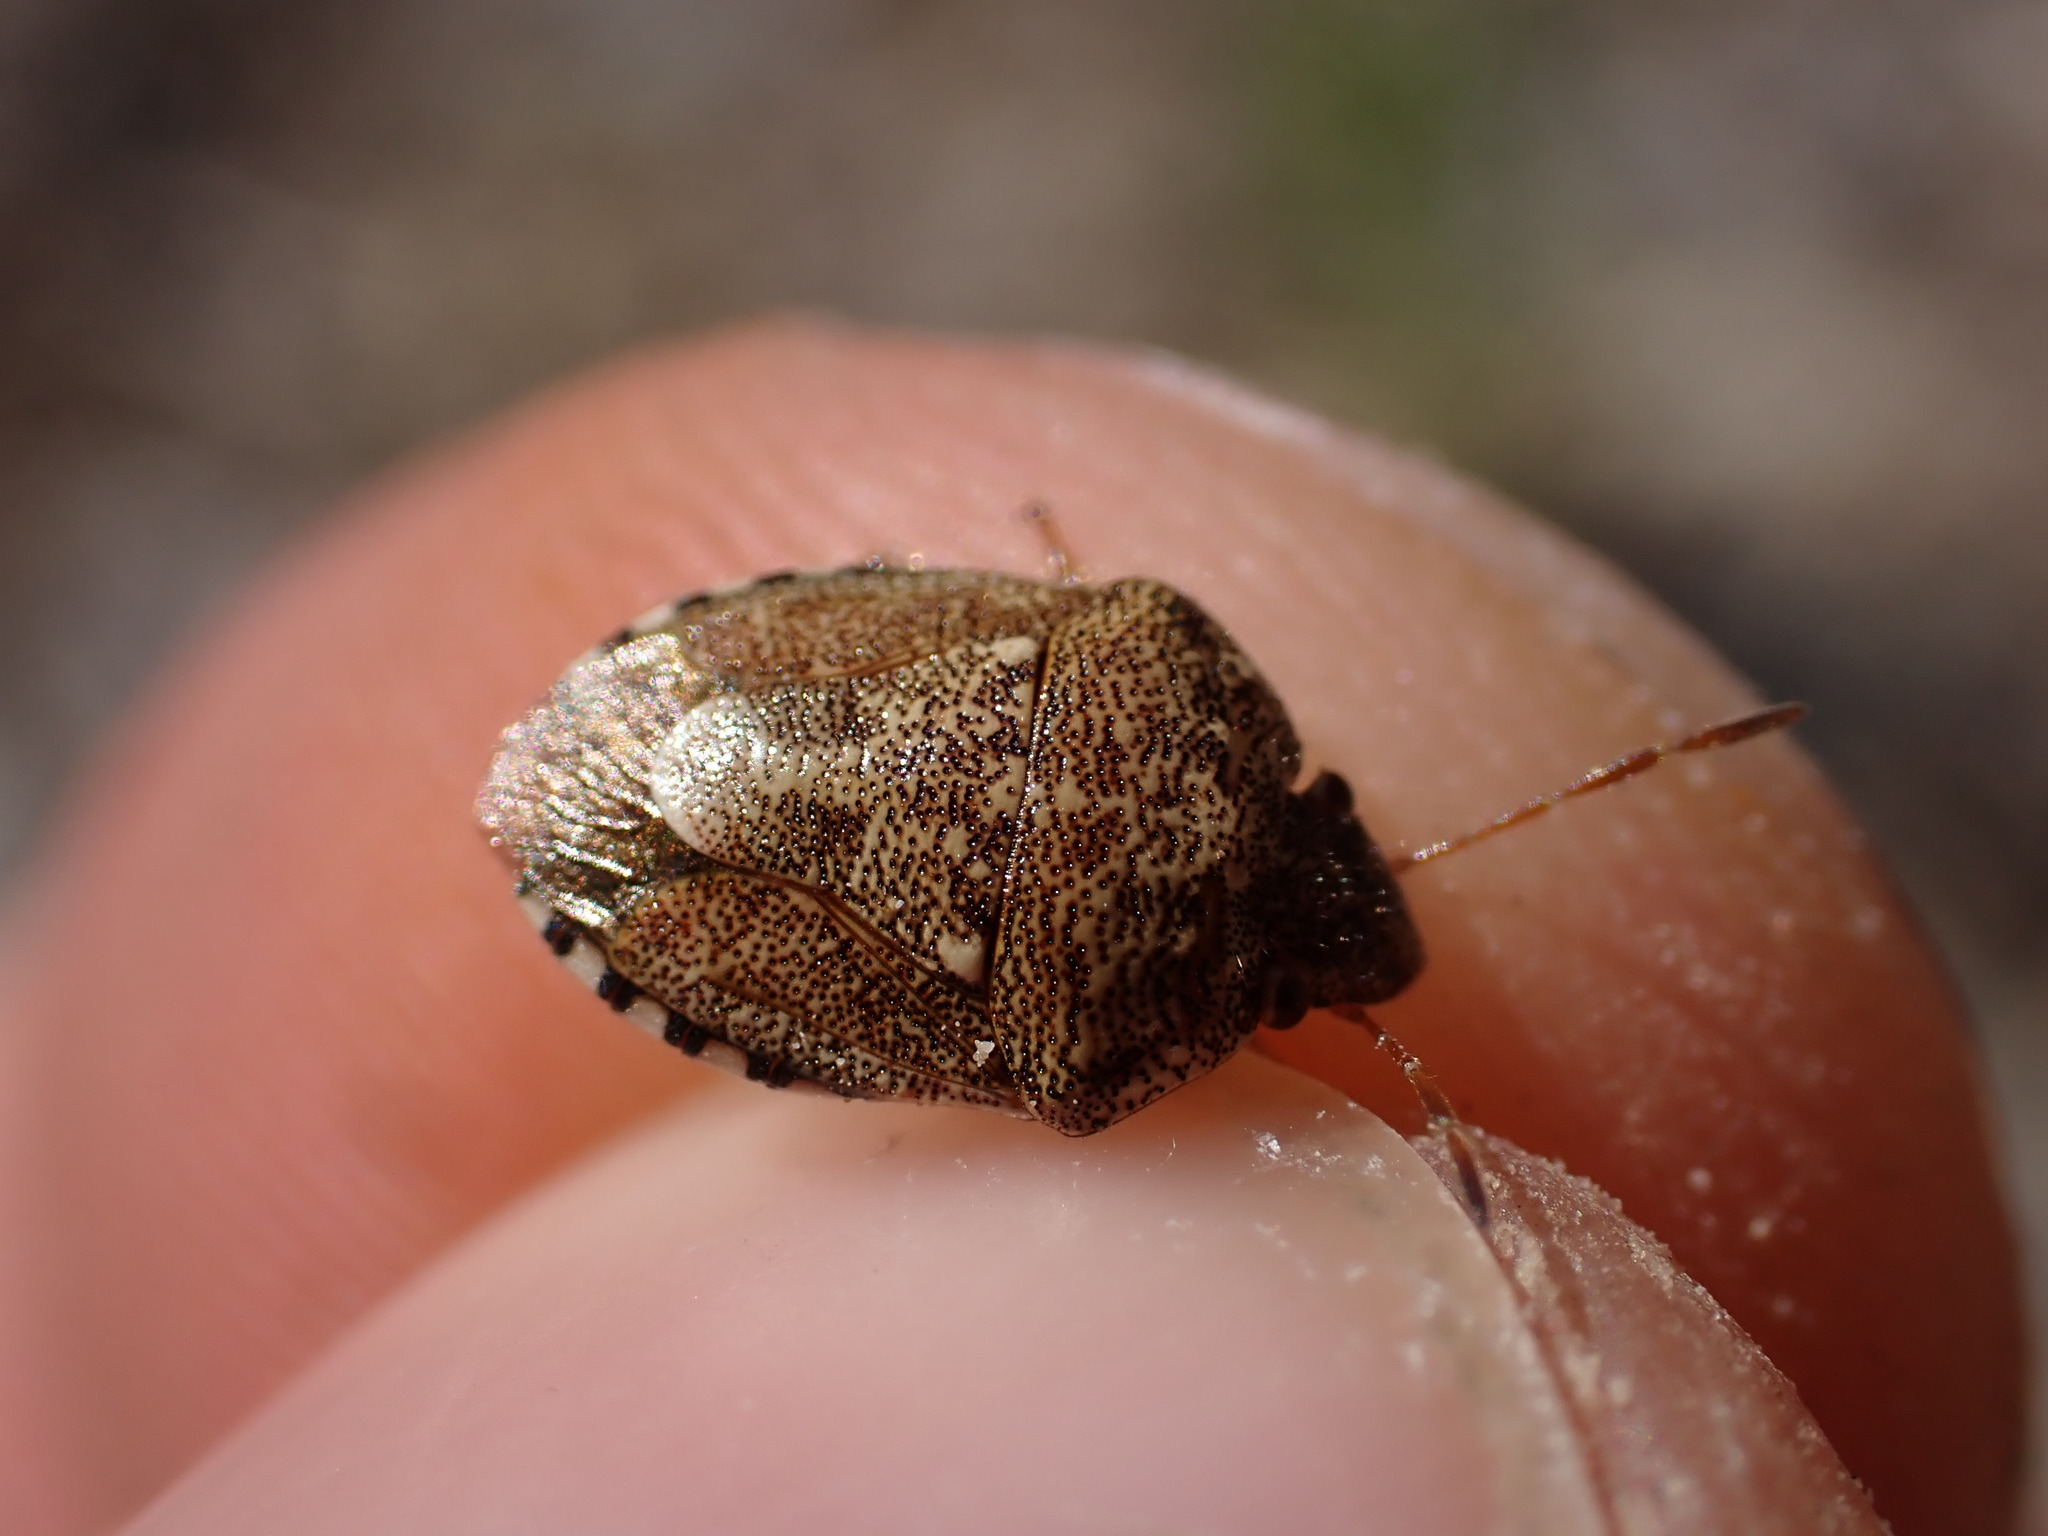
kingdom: Animalia
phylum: Arthropoda
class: Insecta
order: Hemiptera
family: Pentatomidae
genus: Staria
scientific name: Staria lunata
